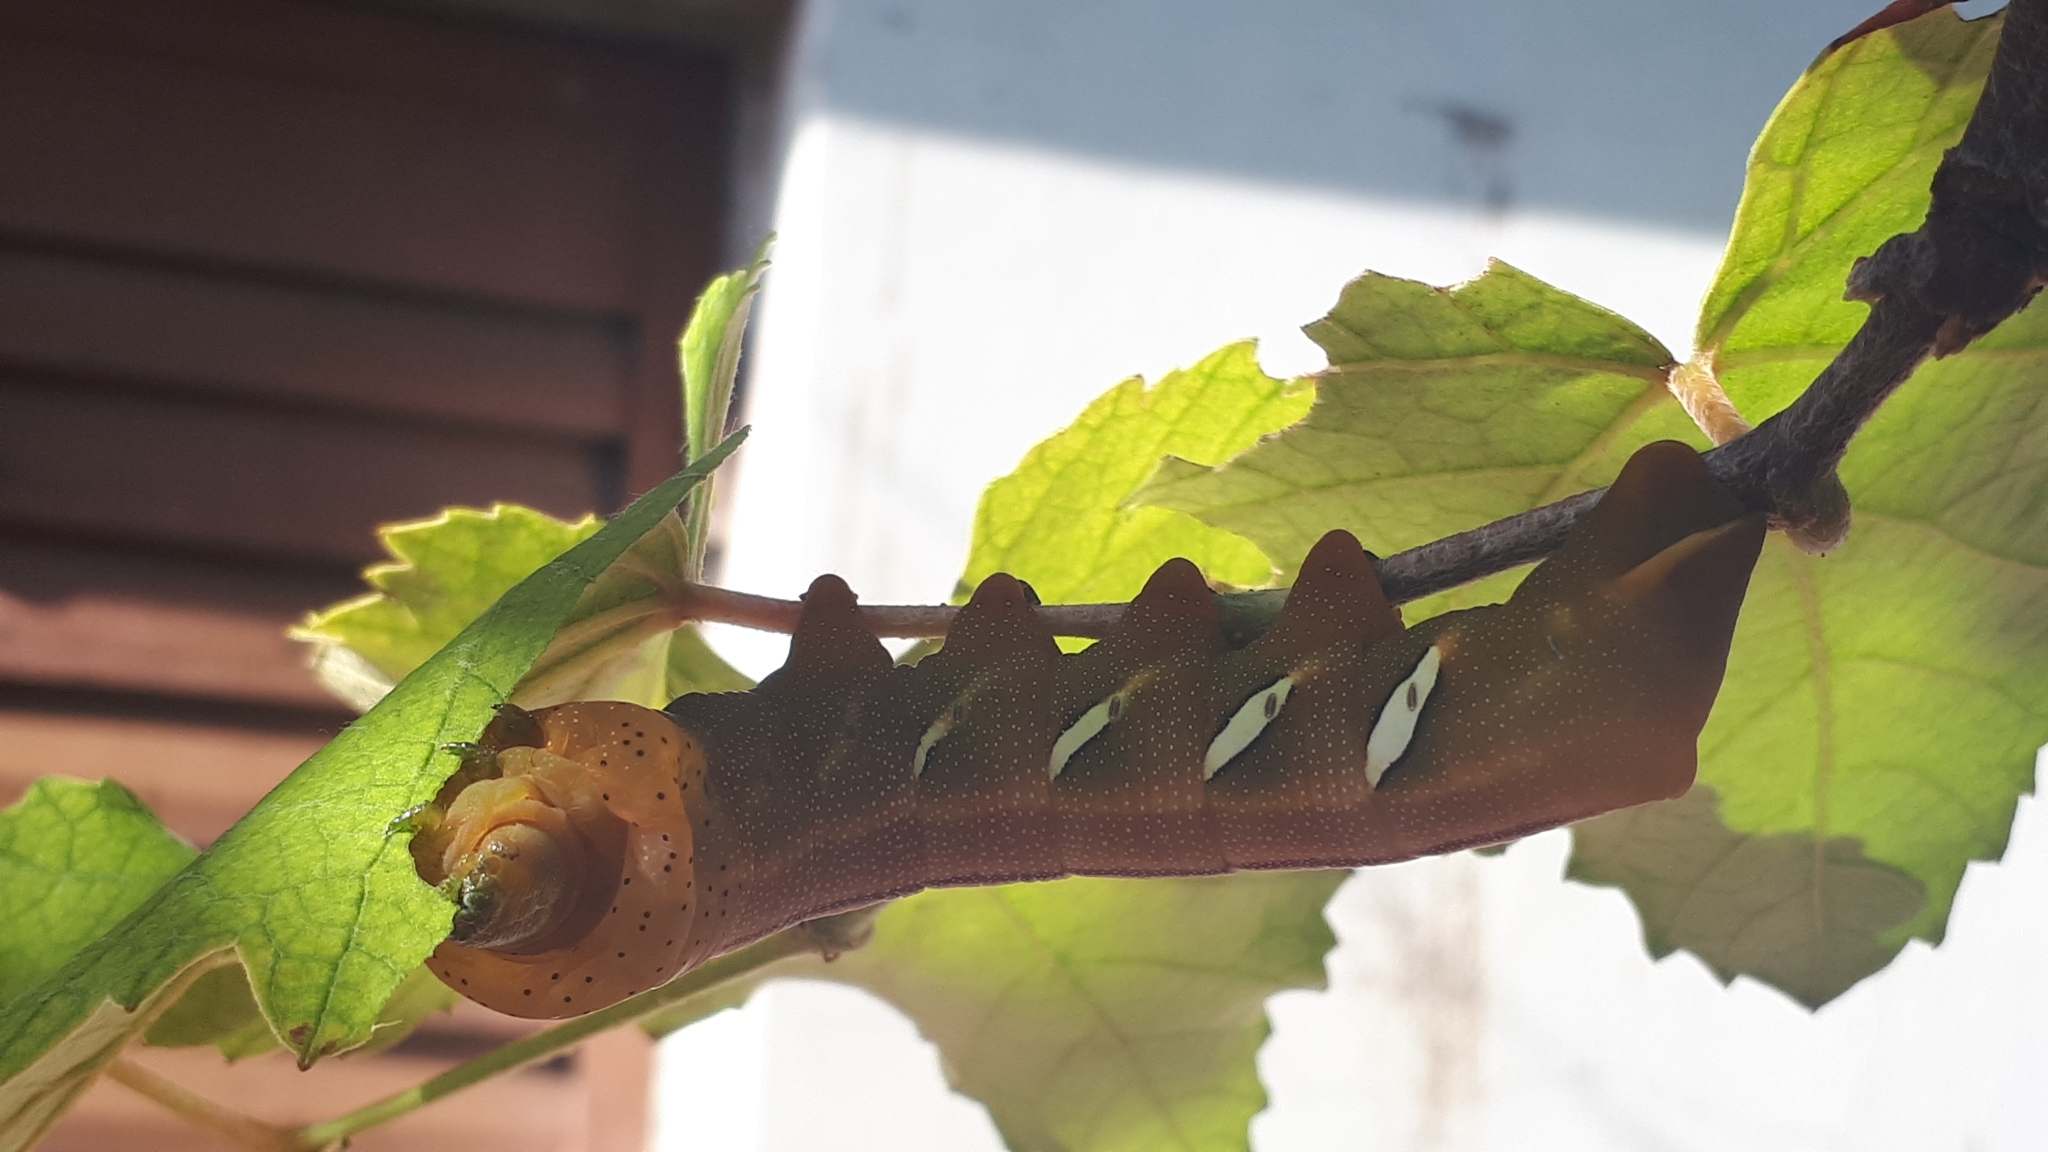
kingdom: Animalia
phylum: Arthropoda
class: Insecta
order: Lepidoptera
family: Sphingidae
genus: Eumorpha
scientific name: Eumorpha analis
